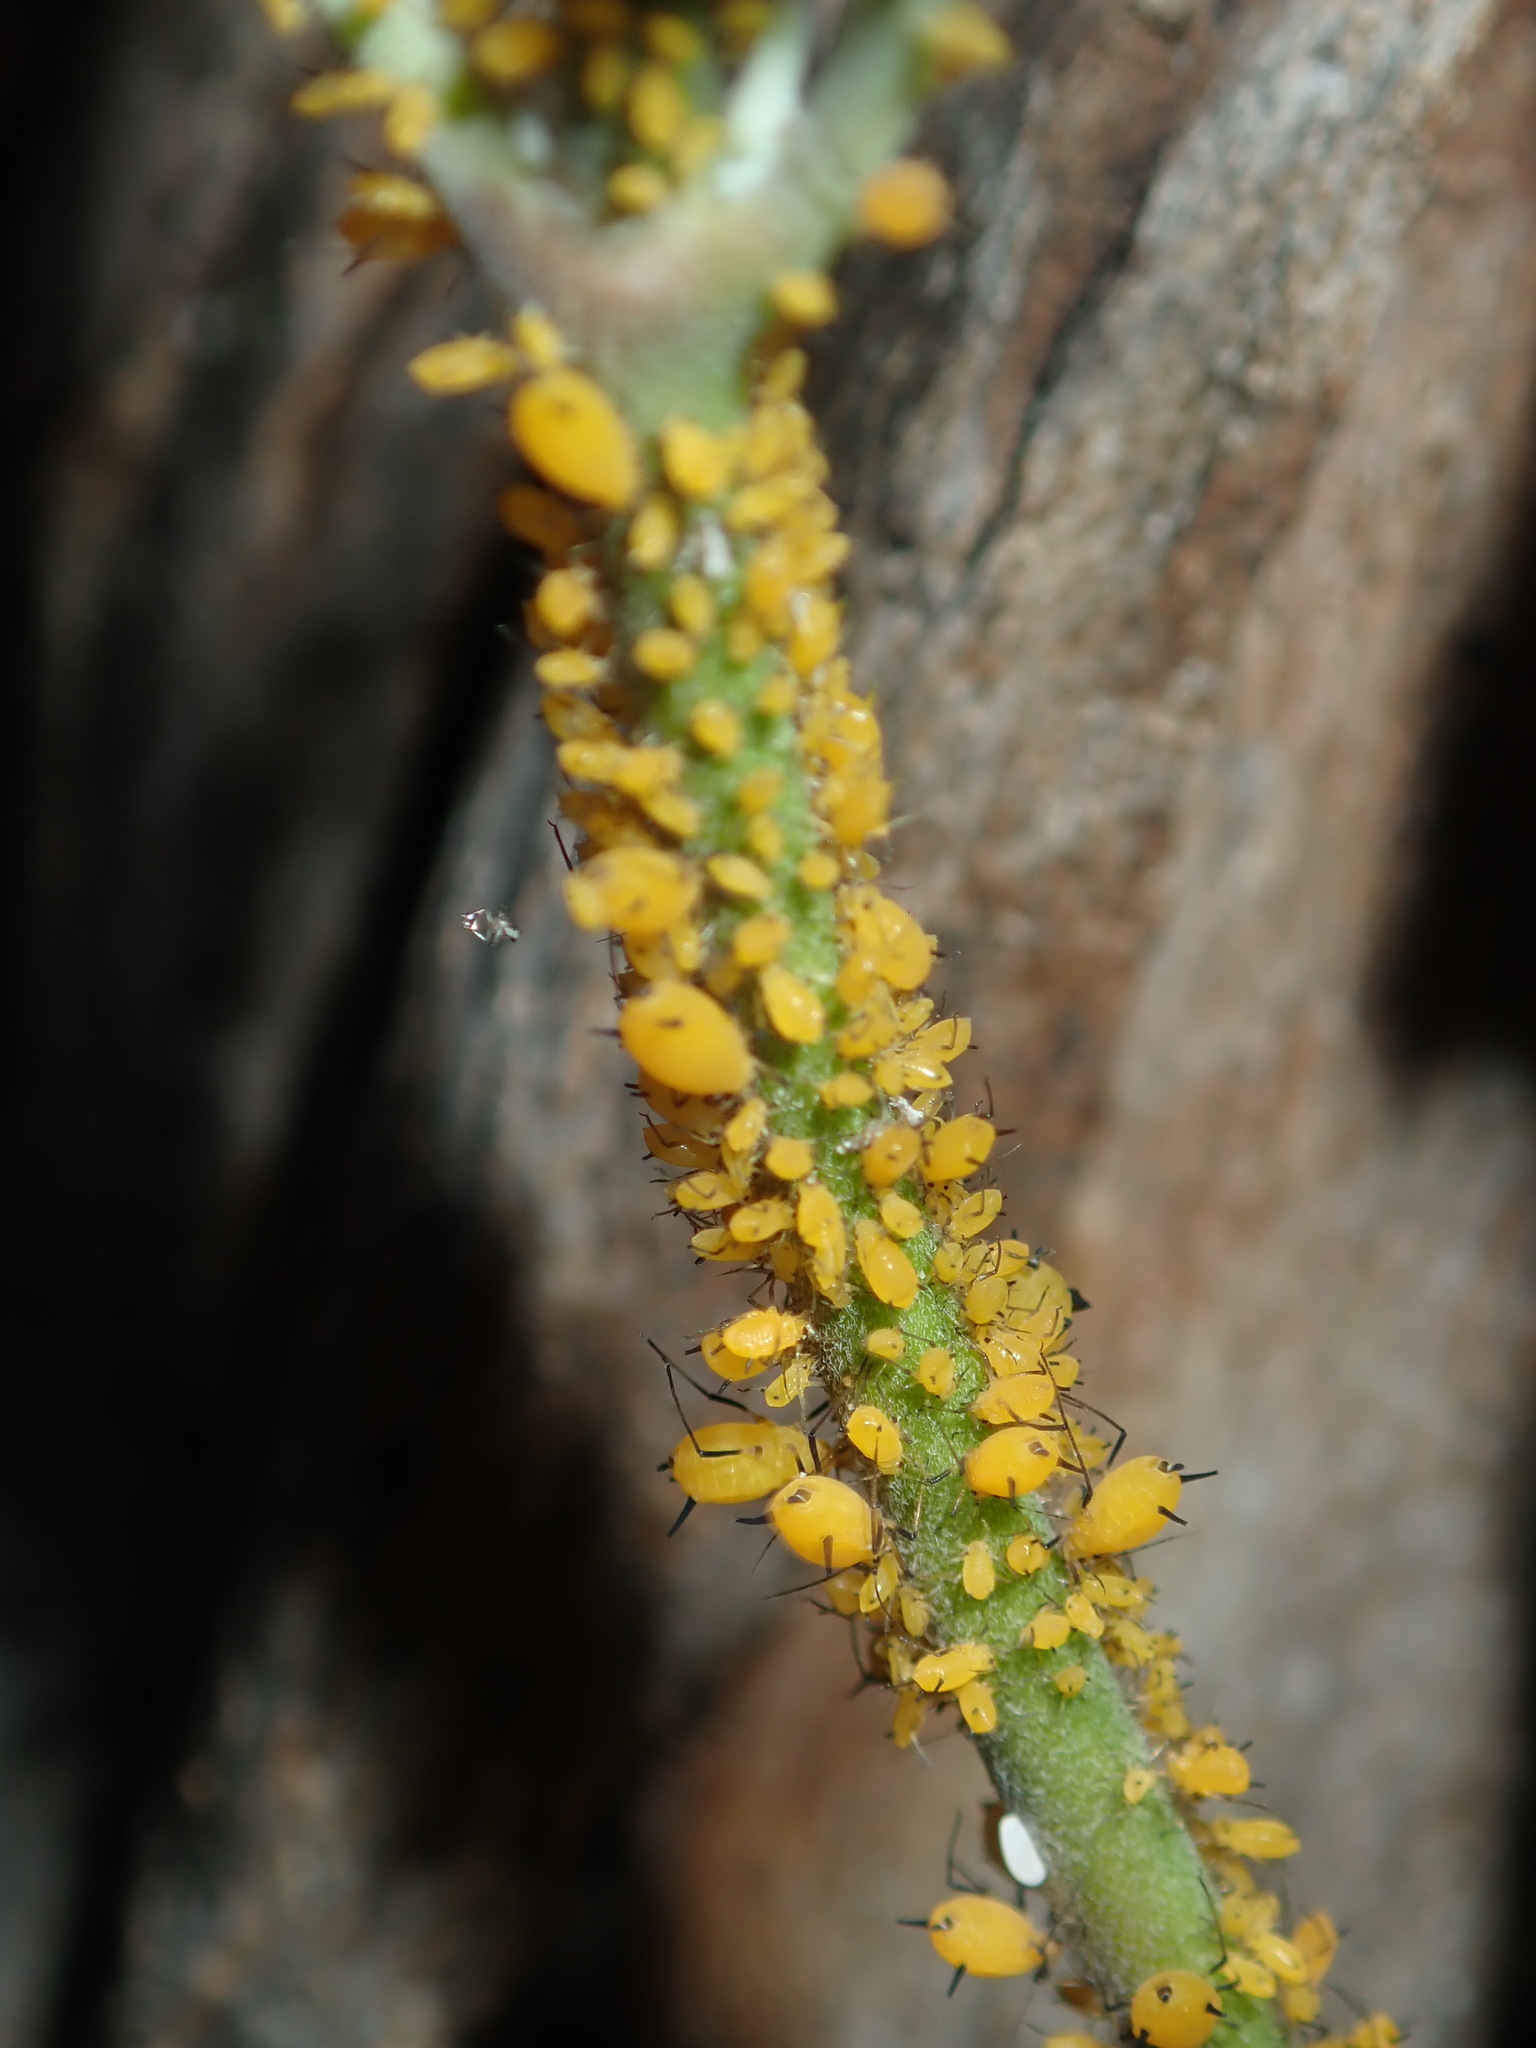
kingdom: Animalia
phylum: Arthropoda
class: Insecta
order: Hemiptera
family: Aphididae
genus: Aphis
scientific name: Aphis nerii
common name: Oleander aphid
